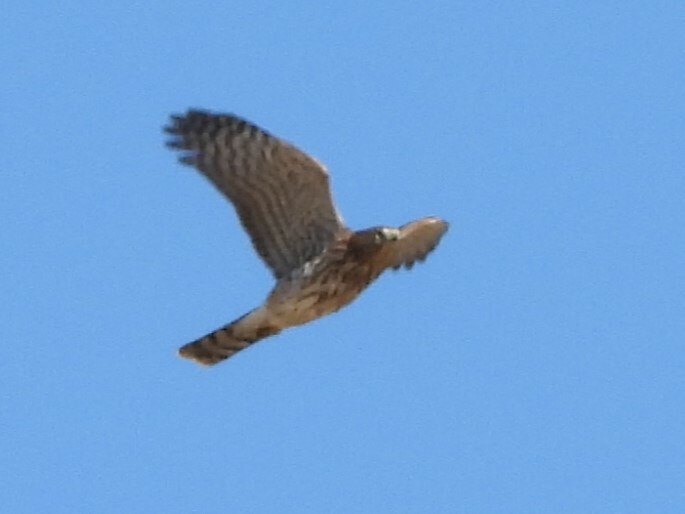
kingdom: Animalia
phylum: Chordata
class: Aves
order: Accipitriformes
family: Accipitridae
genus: Accipiter
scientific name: Accipiter cooperii
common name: Cooper's hawk
